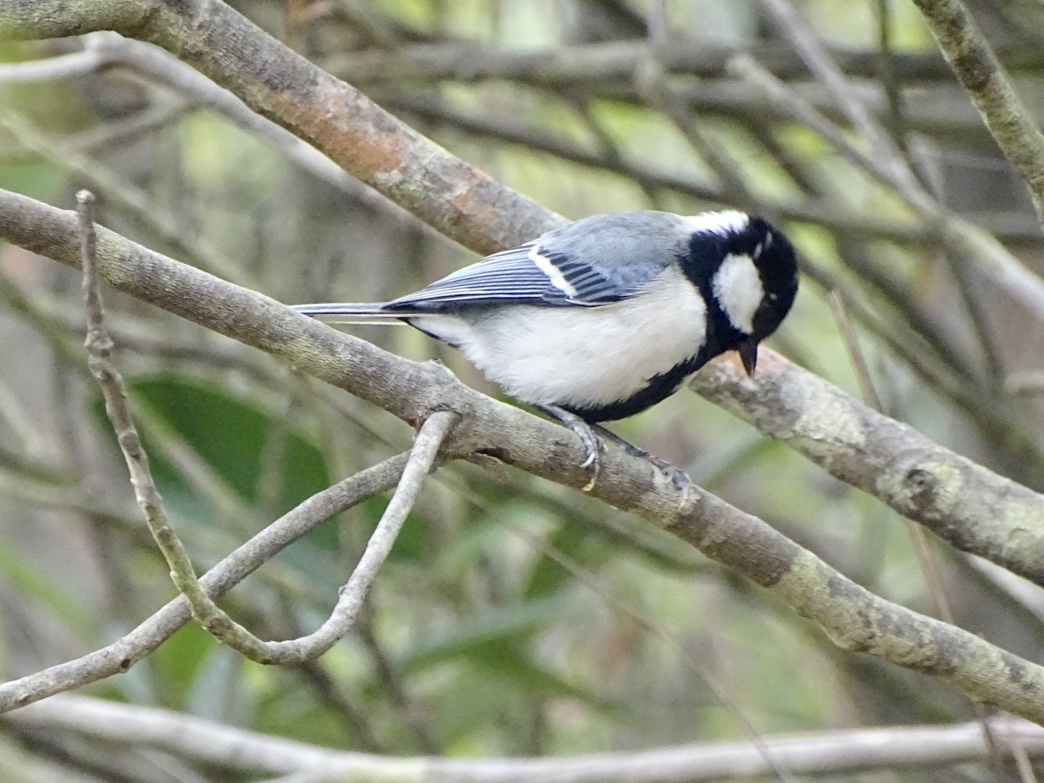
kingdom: Animalia
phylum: Chordata
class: Aves
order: Passeriformes
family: Paridae
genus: Parus
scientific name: Parus minor
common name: Japanese tit
